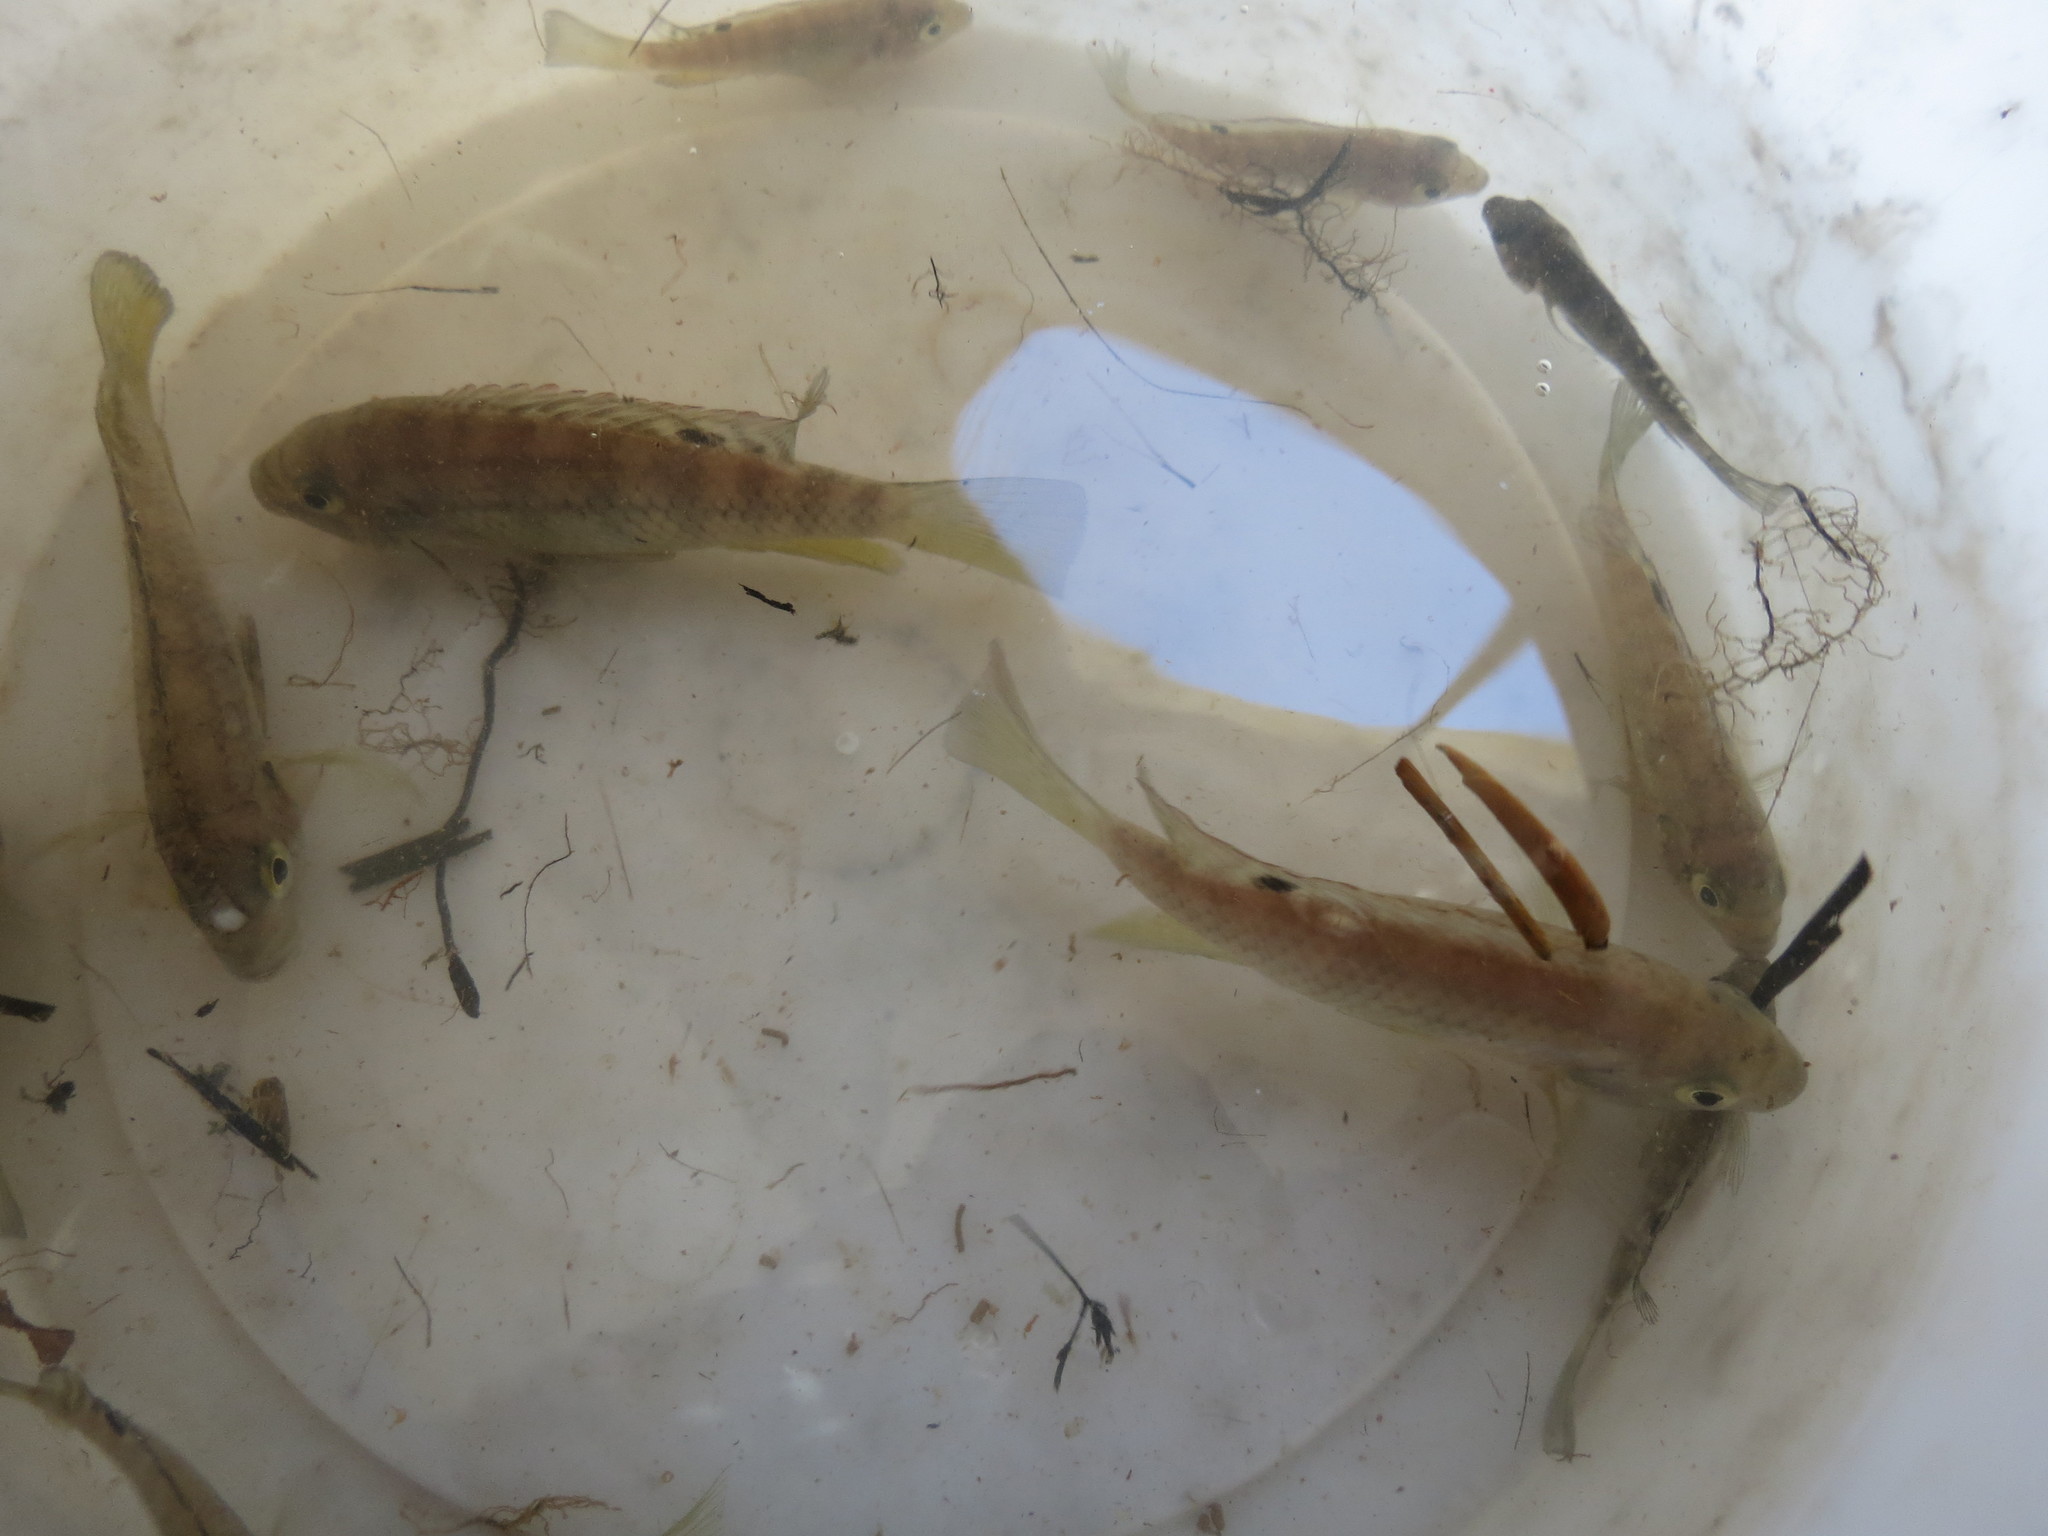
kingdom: Animalia
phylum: Chordata
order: Perciformes
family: Cichlidae
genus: Tilapia
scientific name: Tilapia sparrmanii
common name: Banded tilapia
